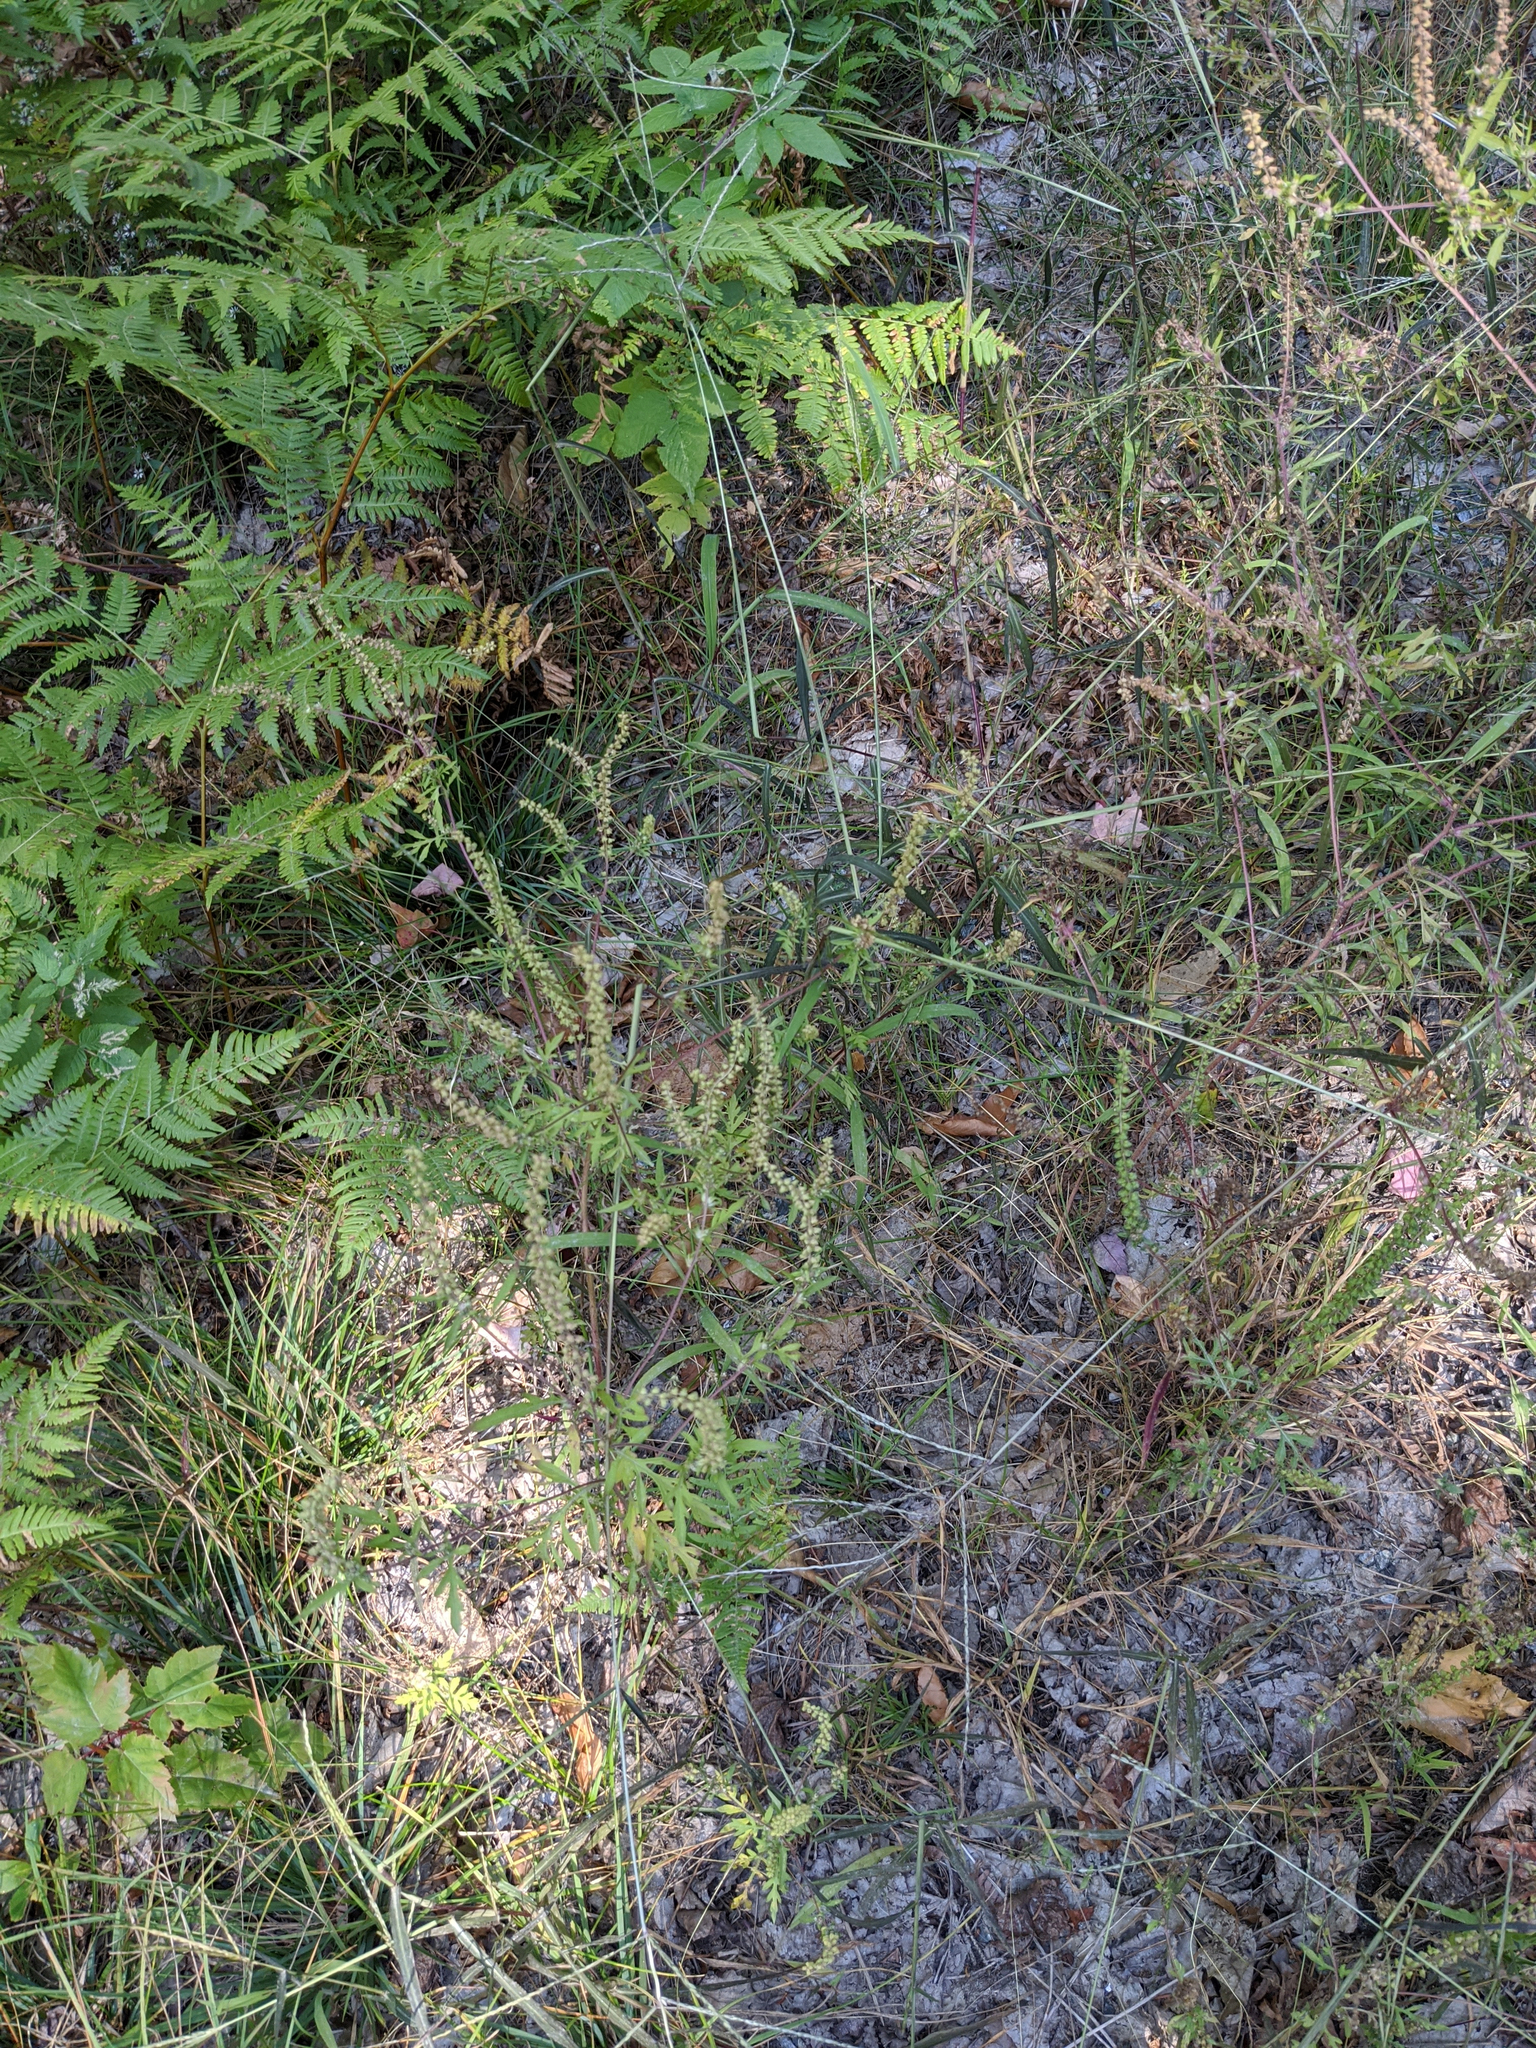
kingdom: Plantae
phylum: Tracheophyta
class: Magnoliopsida
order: Asterales
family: Asteraceae
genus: Ambrosia
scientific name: Ambrosia artemisiifolia
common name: Annual ragweed
